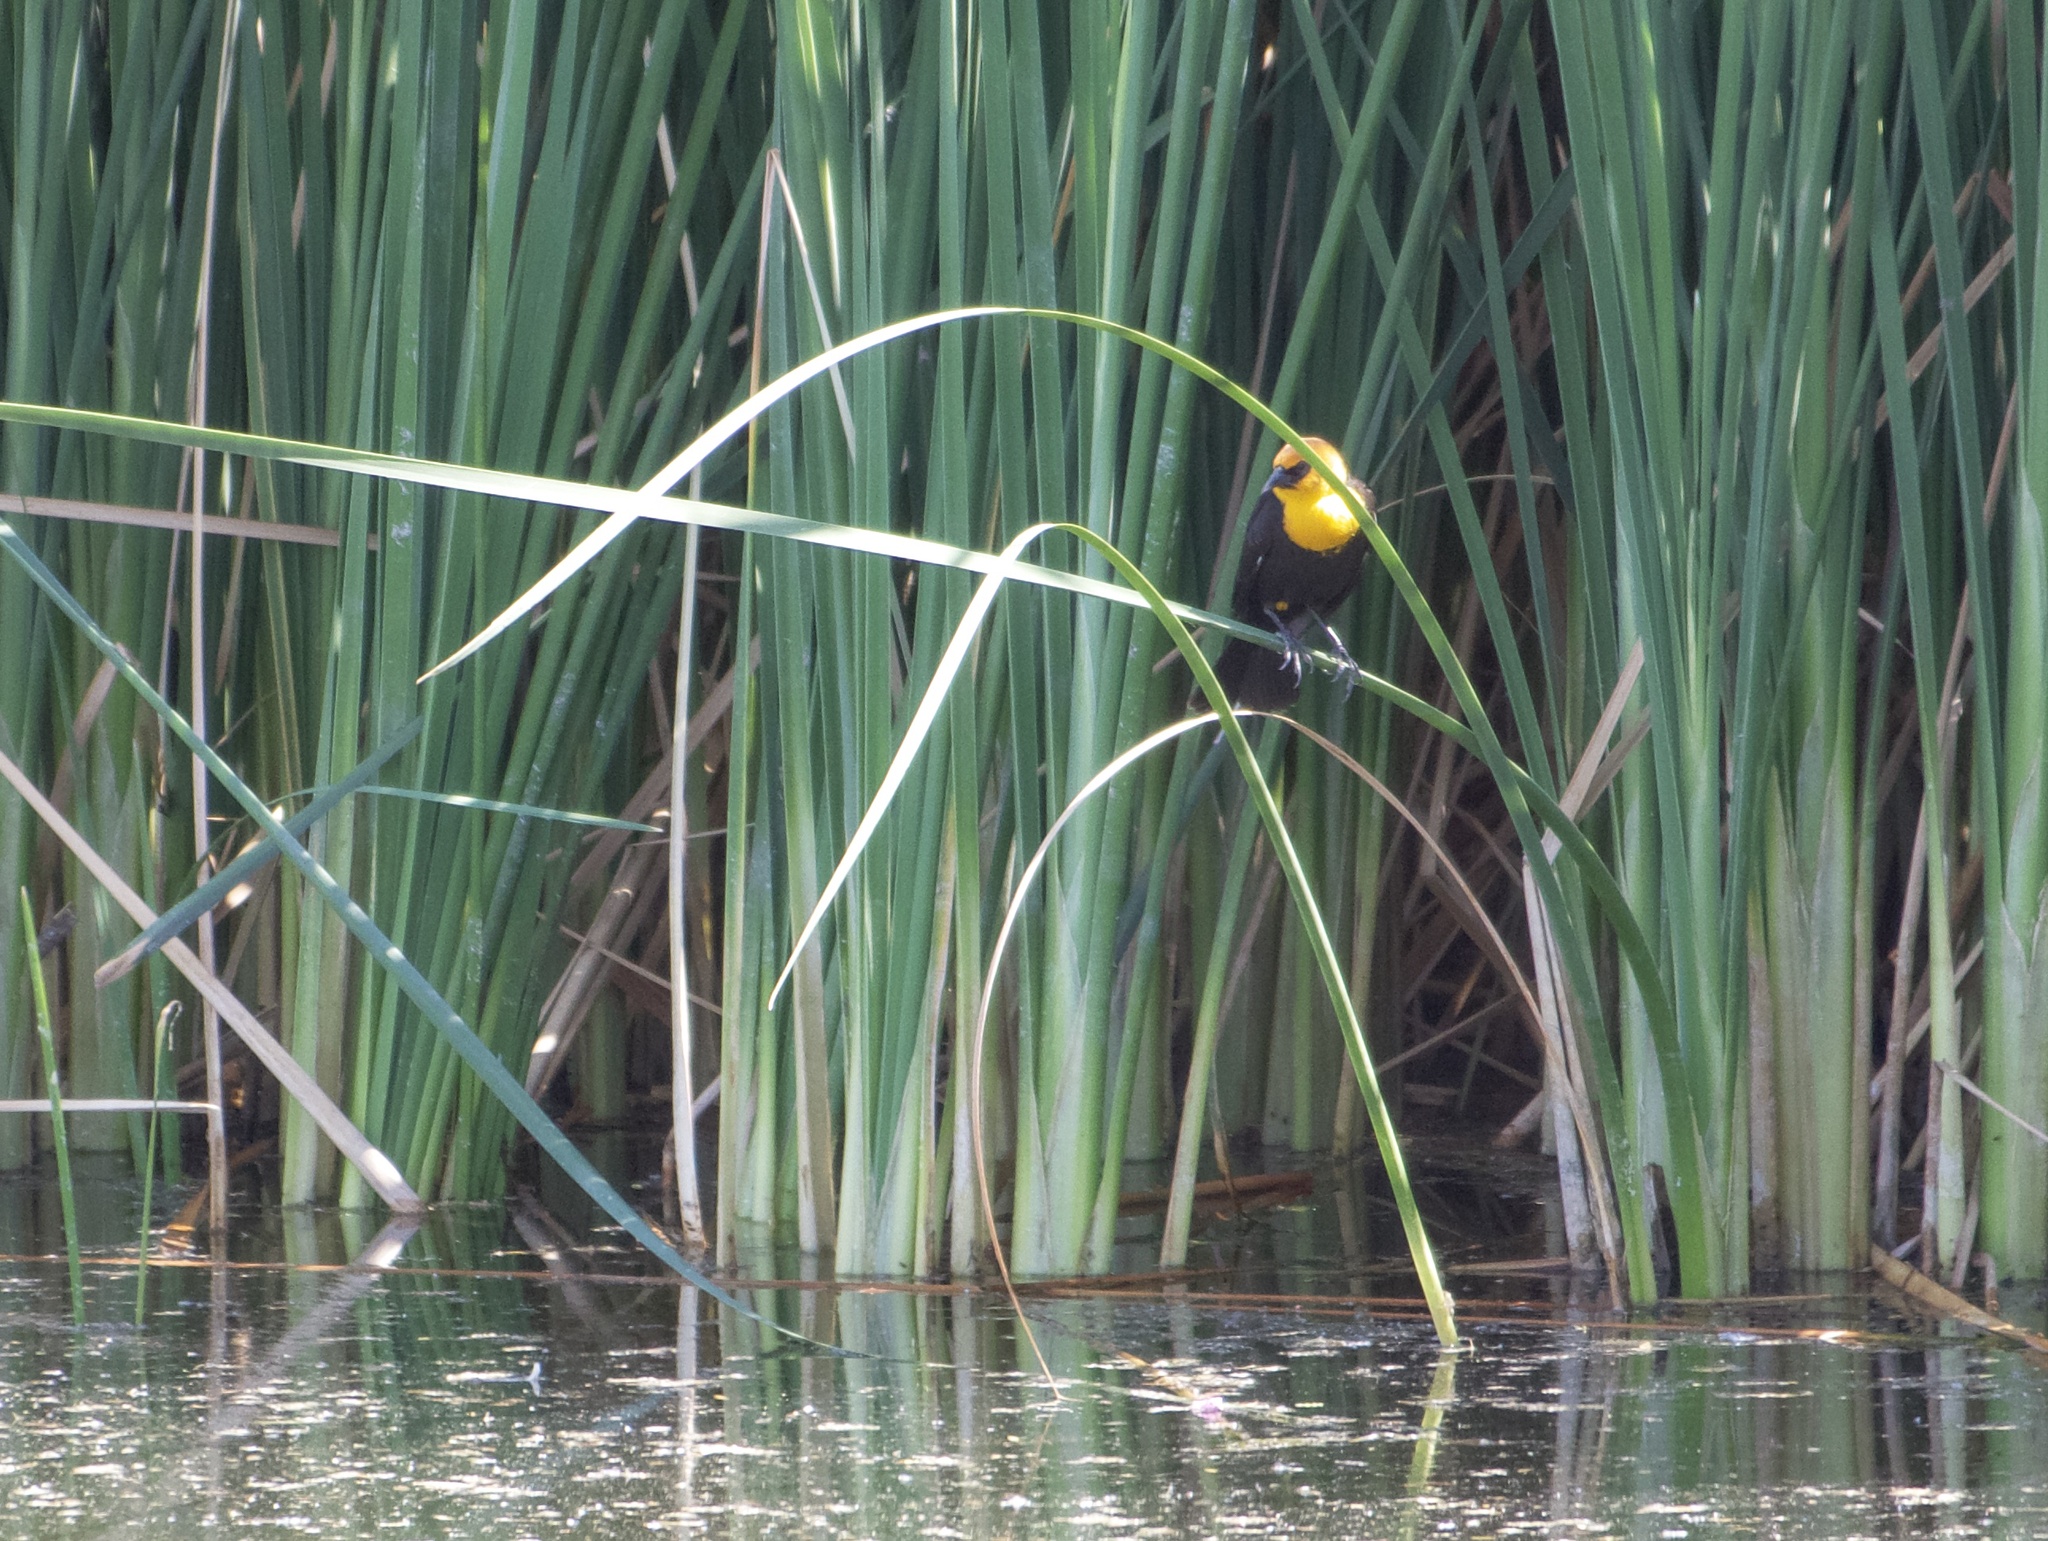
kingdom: Animalia
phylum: Chordata
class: Aves
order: Passeriformes
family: Icteridae
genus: Xanthocephalus
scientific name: Xanthocephalus xanthocephalus
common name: Yellow-headed blackbird
